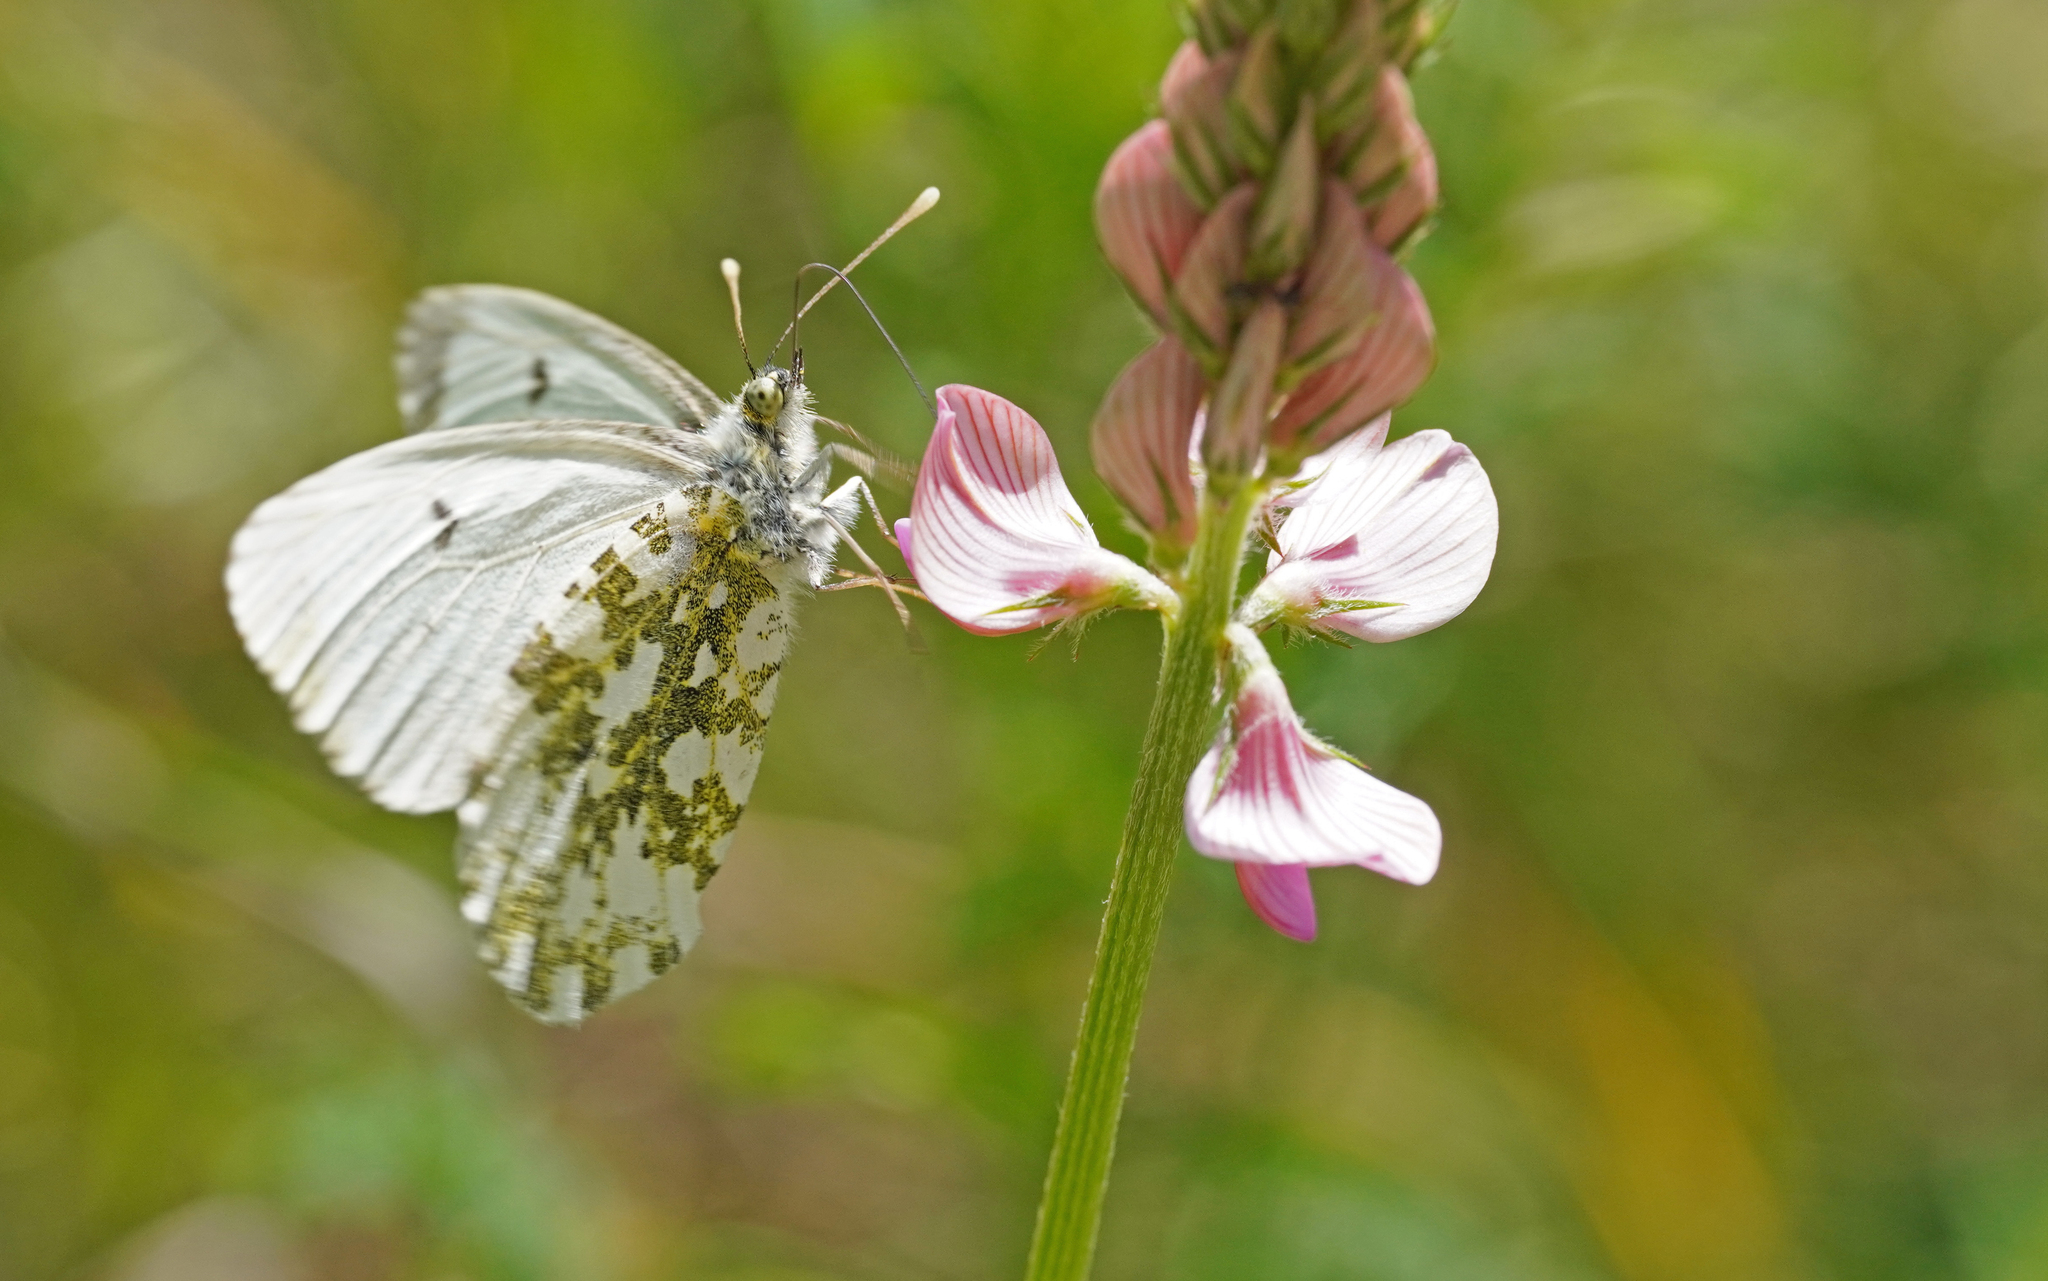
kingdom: Animalia
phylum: Arthropoda
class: Insecta
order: Lepidoptera
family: Pieridae
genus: Anthocharis
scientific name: Anthocharis cardamines
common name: Orange-tip
